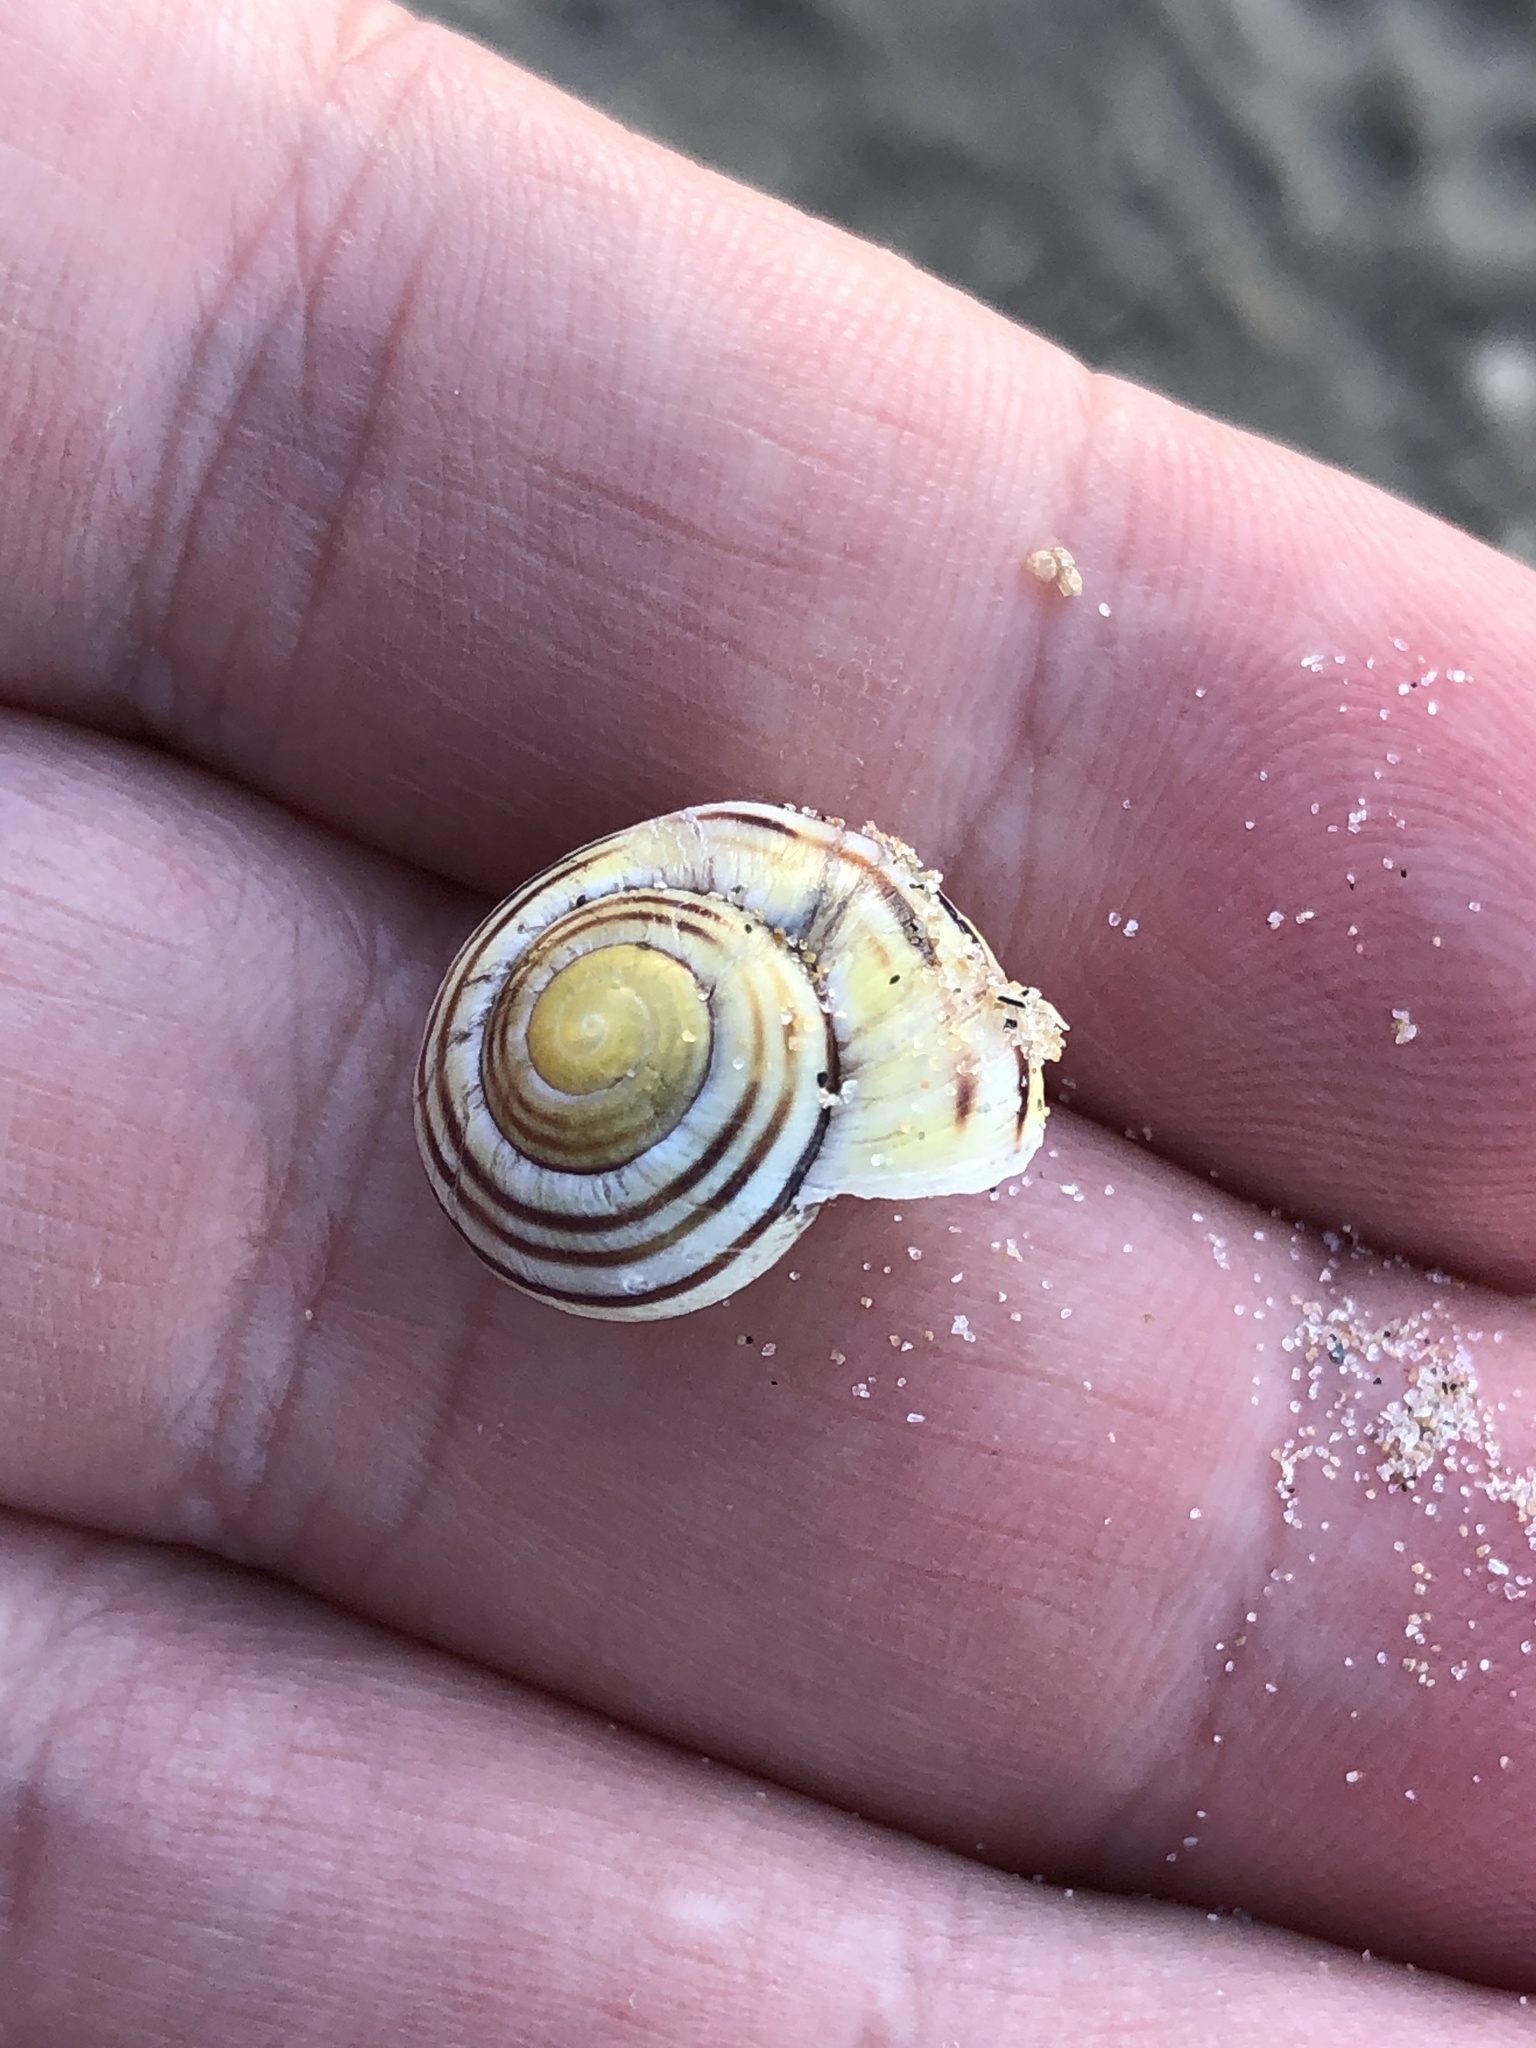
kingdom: Animalia
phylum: Mollusca
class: Gastropoda
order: Stylommatophora
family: Helicidae
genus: Cepaea
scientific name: Cepaea
